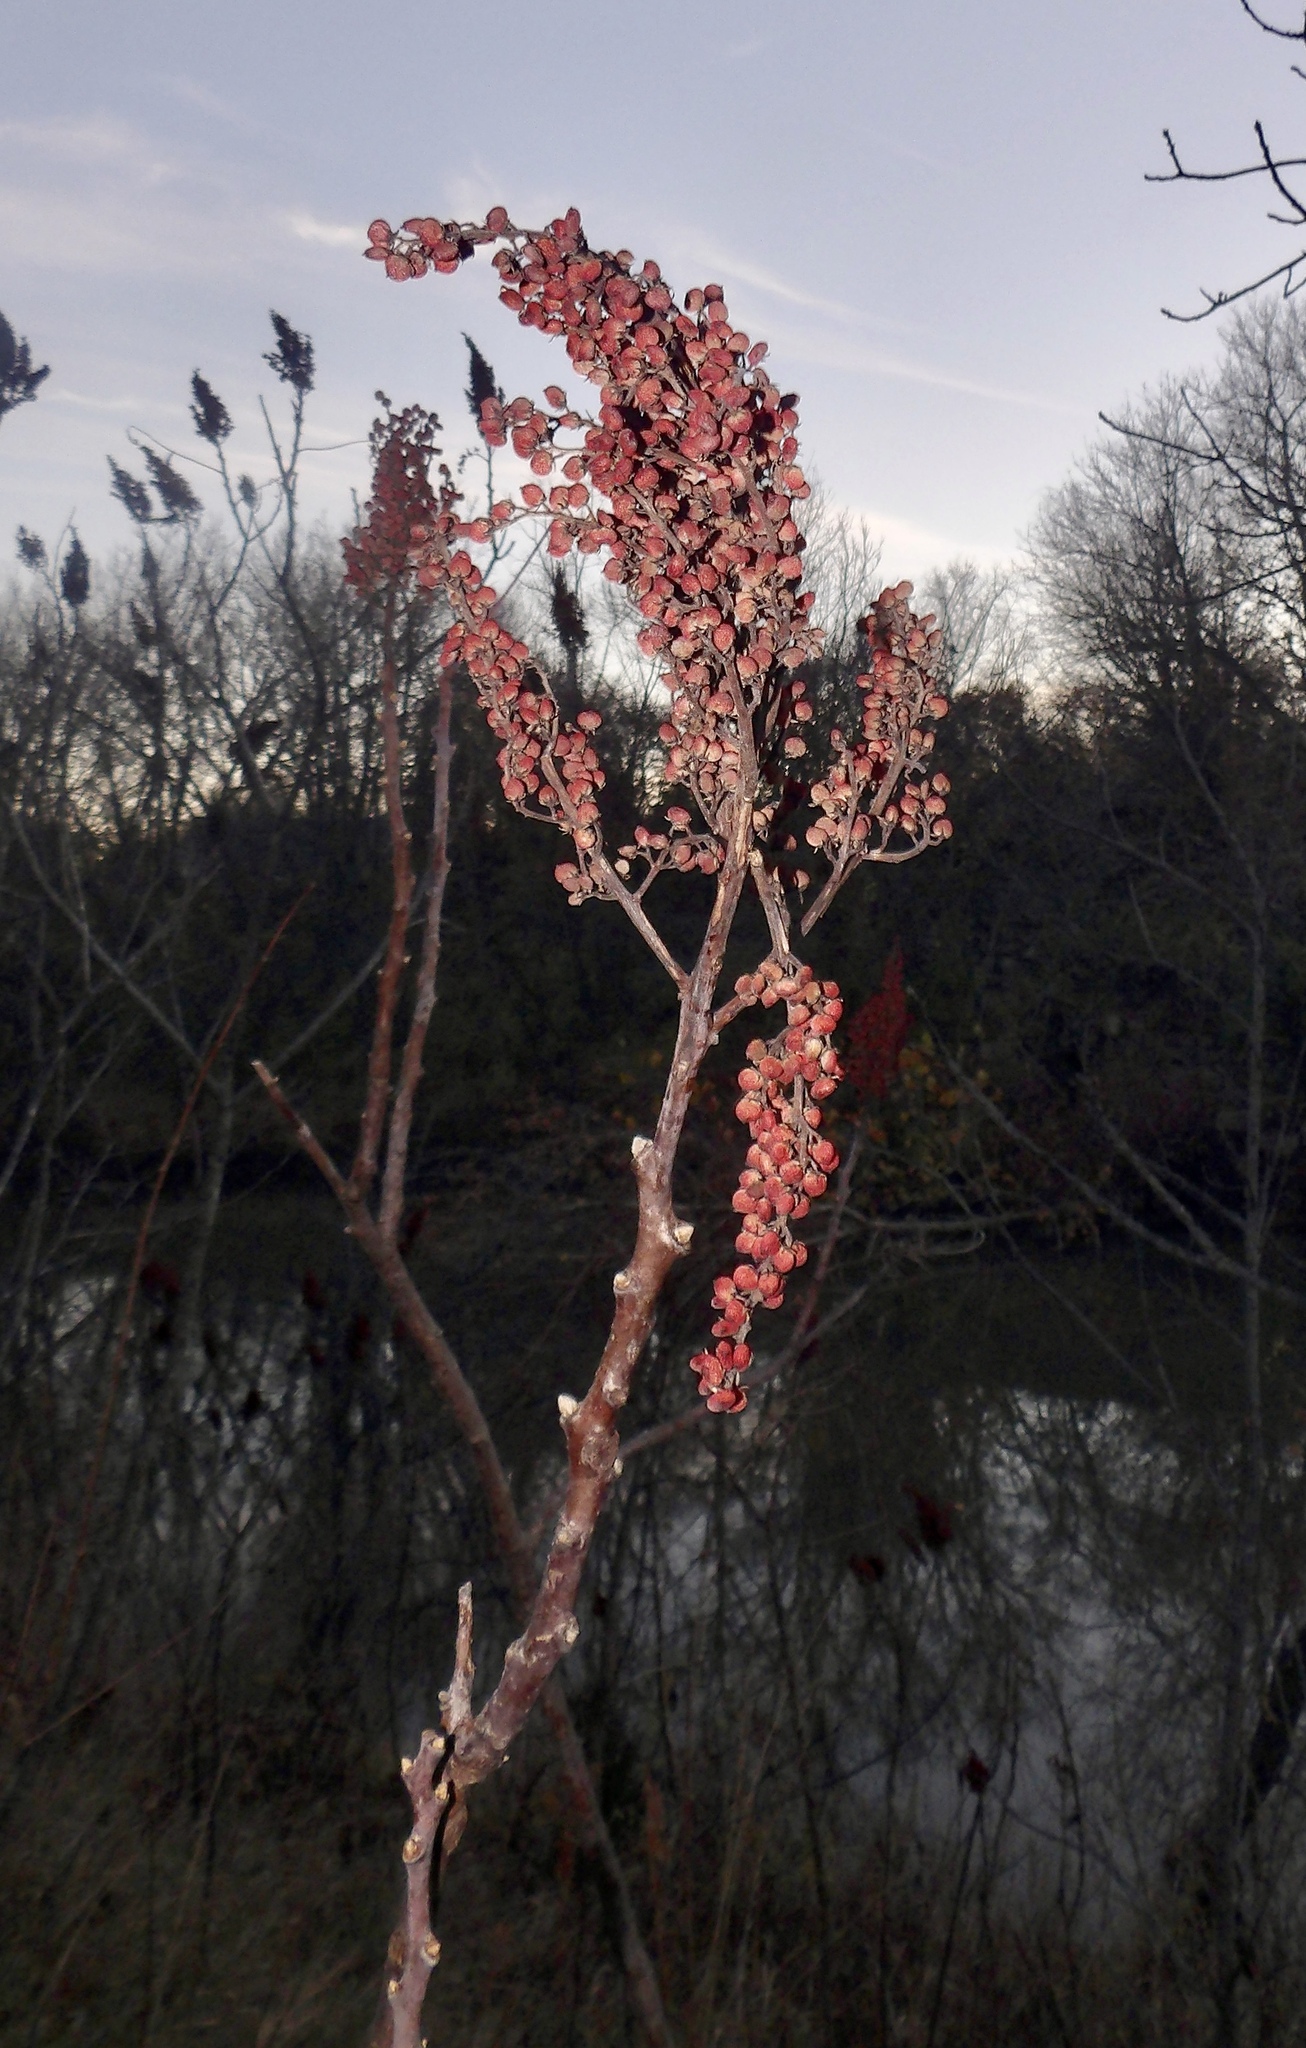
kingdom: Plantae
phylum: Tracheophyta
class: Magnoliopsida
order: Sapindales
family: Anacardiaceae
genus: Rhus
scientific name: Rhus glabra
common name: Scarlet sumac
